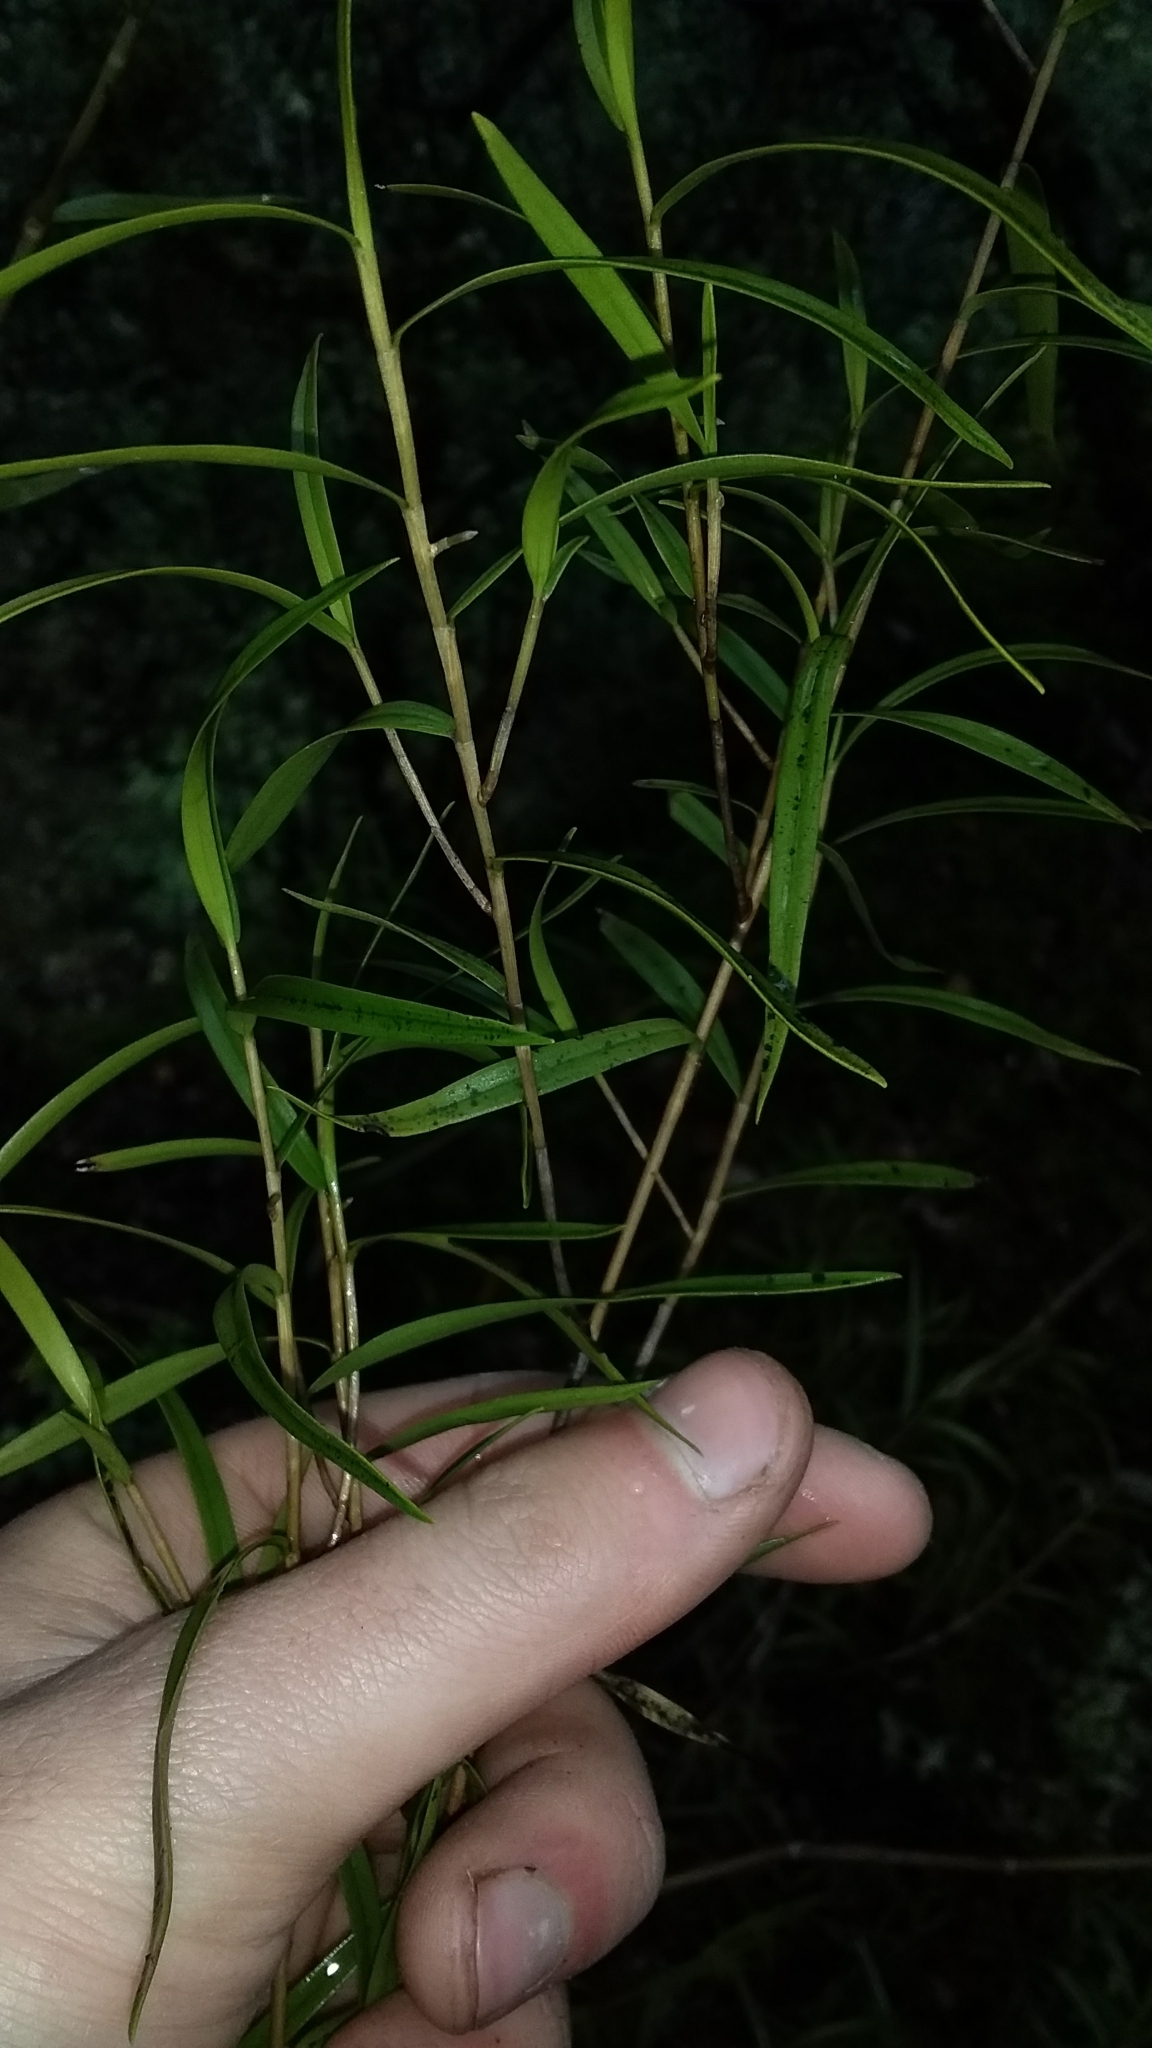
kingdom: Plantae
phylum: Tracheophyta
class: Liliopsida
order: Asparagales
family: Orchidaceae
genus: Dendrobium
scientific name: Dendrobium cunninghamii
